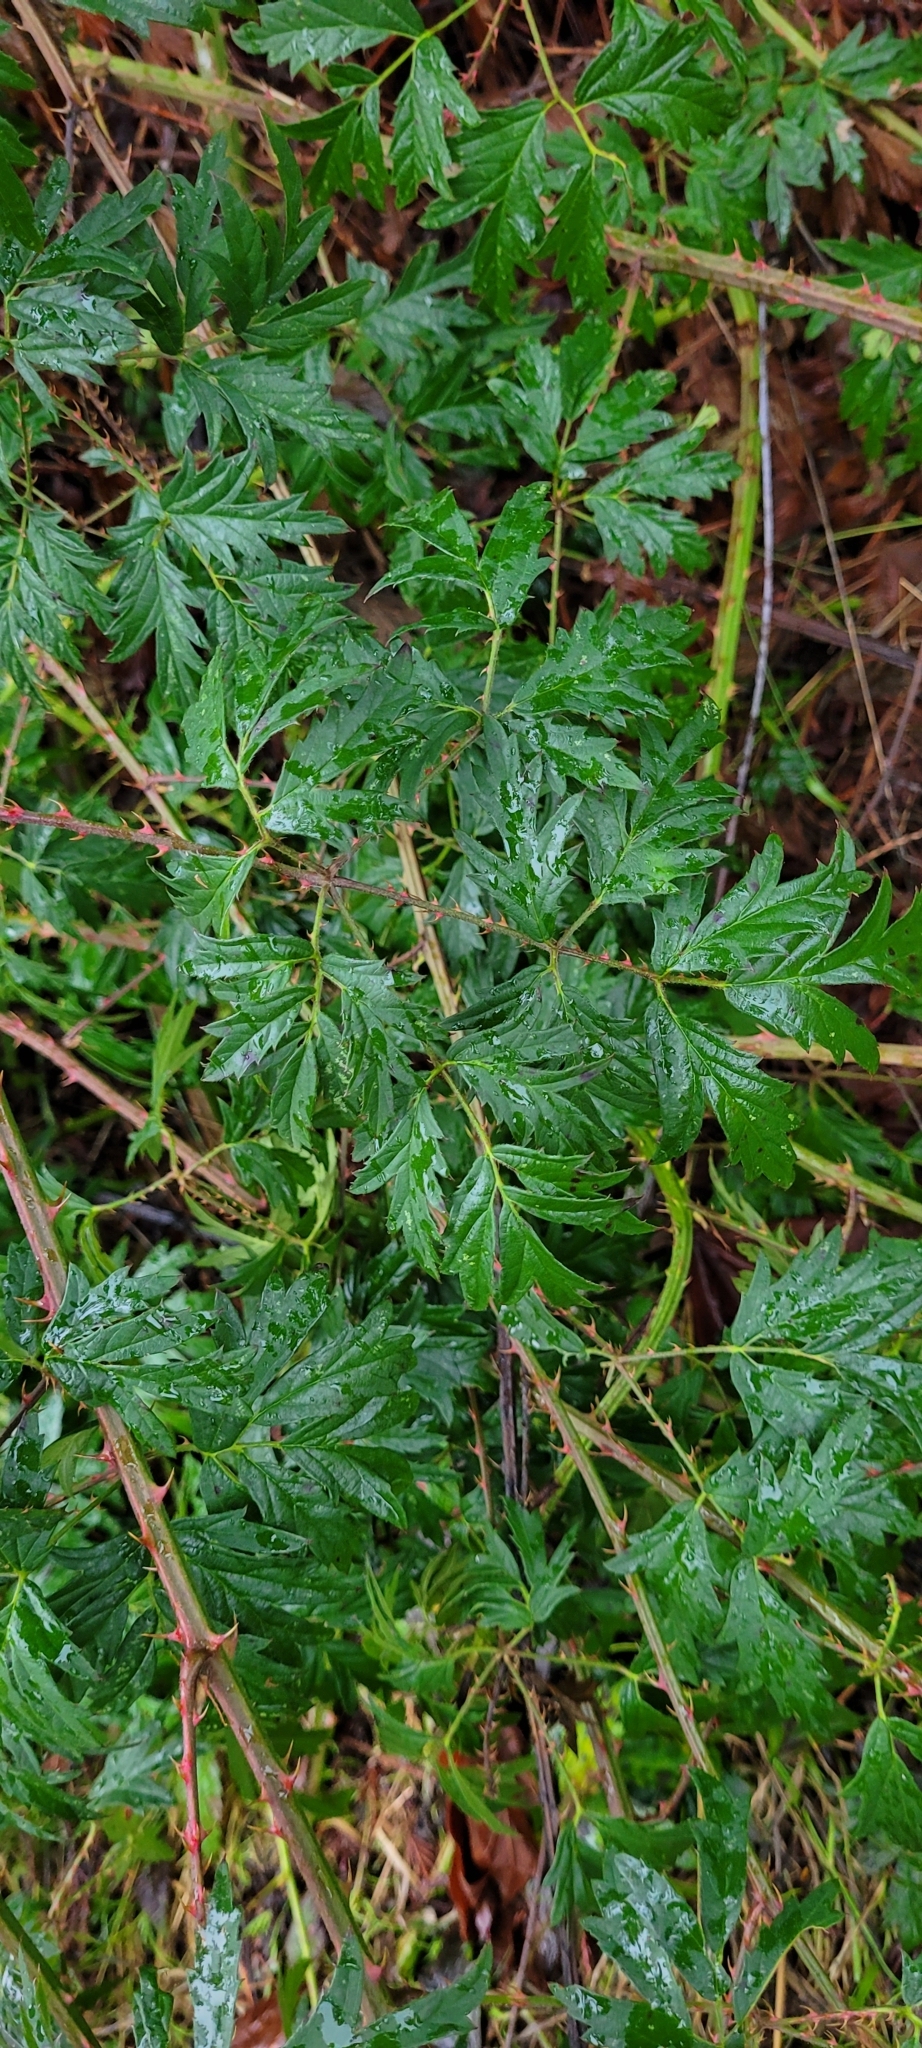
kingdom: Plantae
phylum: Tracheophyta
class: Magnoliopsida
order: Rosales
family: Rosaceae
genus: Rubus
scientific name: Rubus laciniatus
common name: Evergreen blackberry
